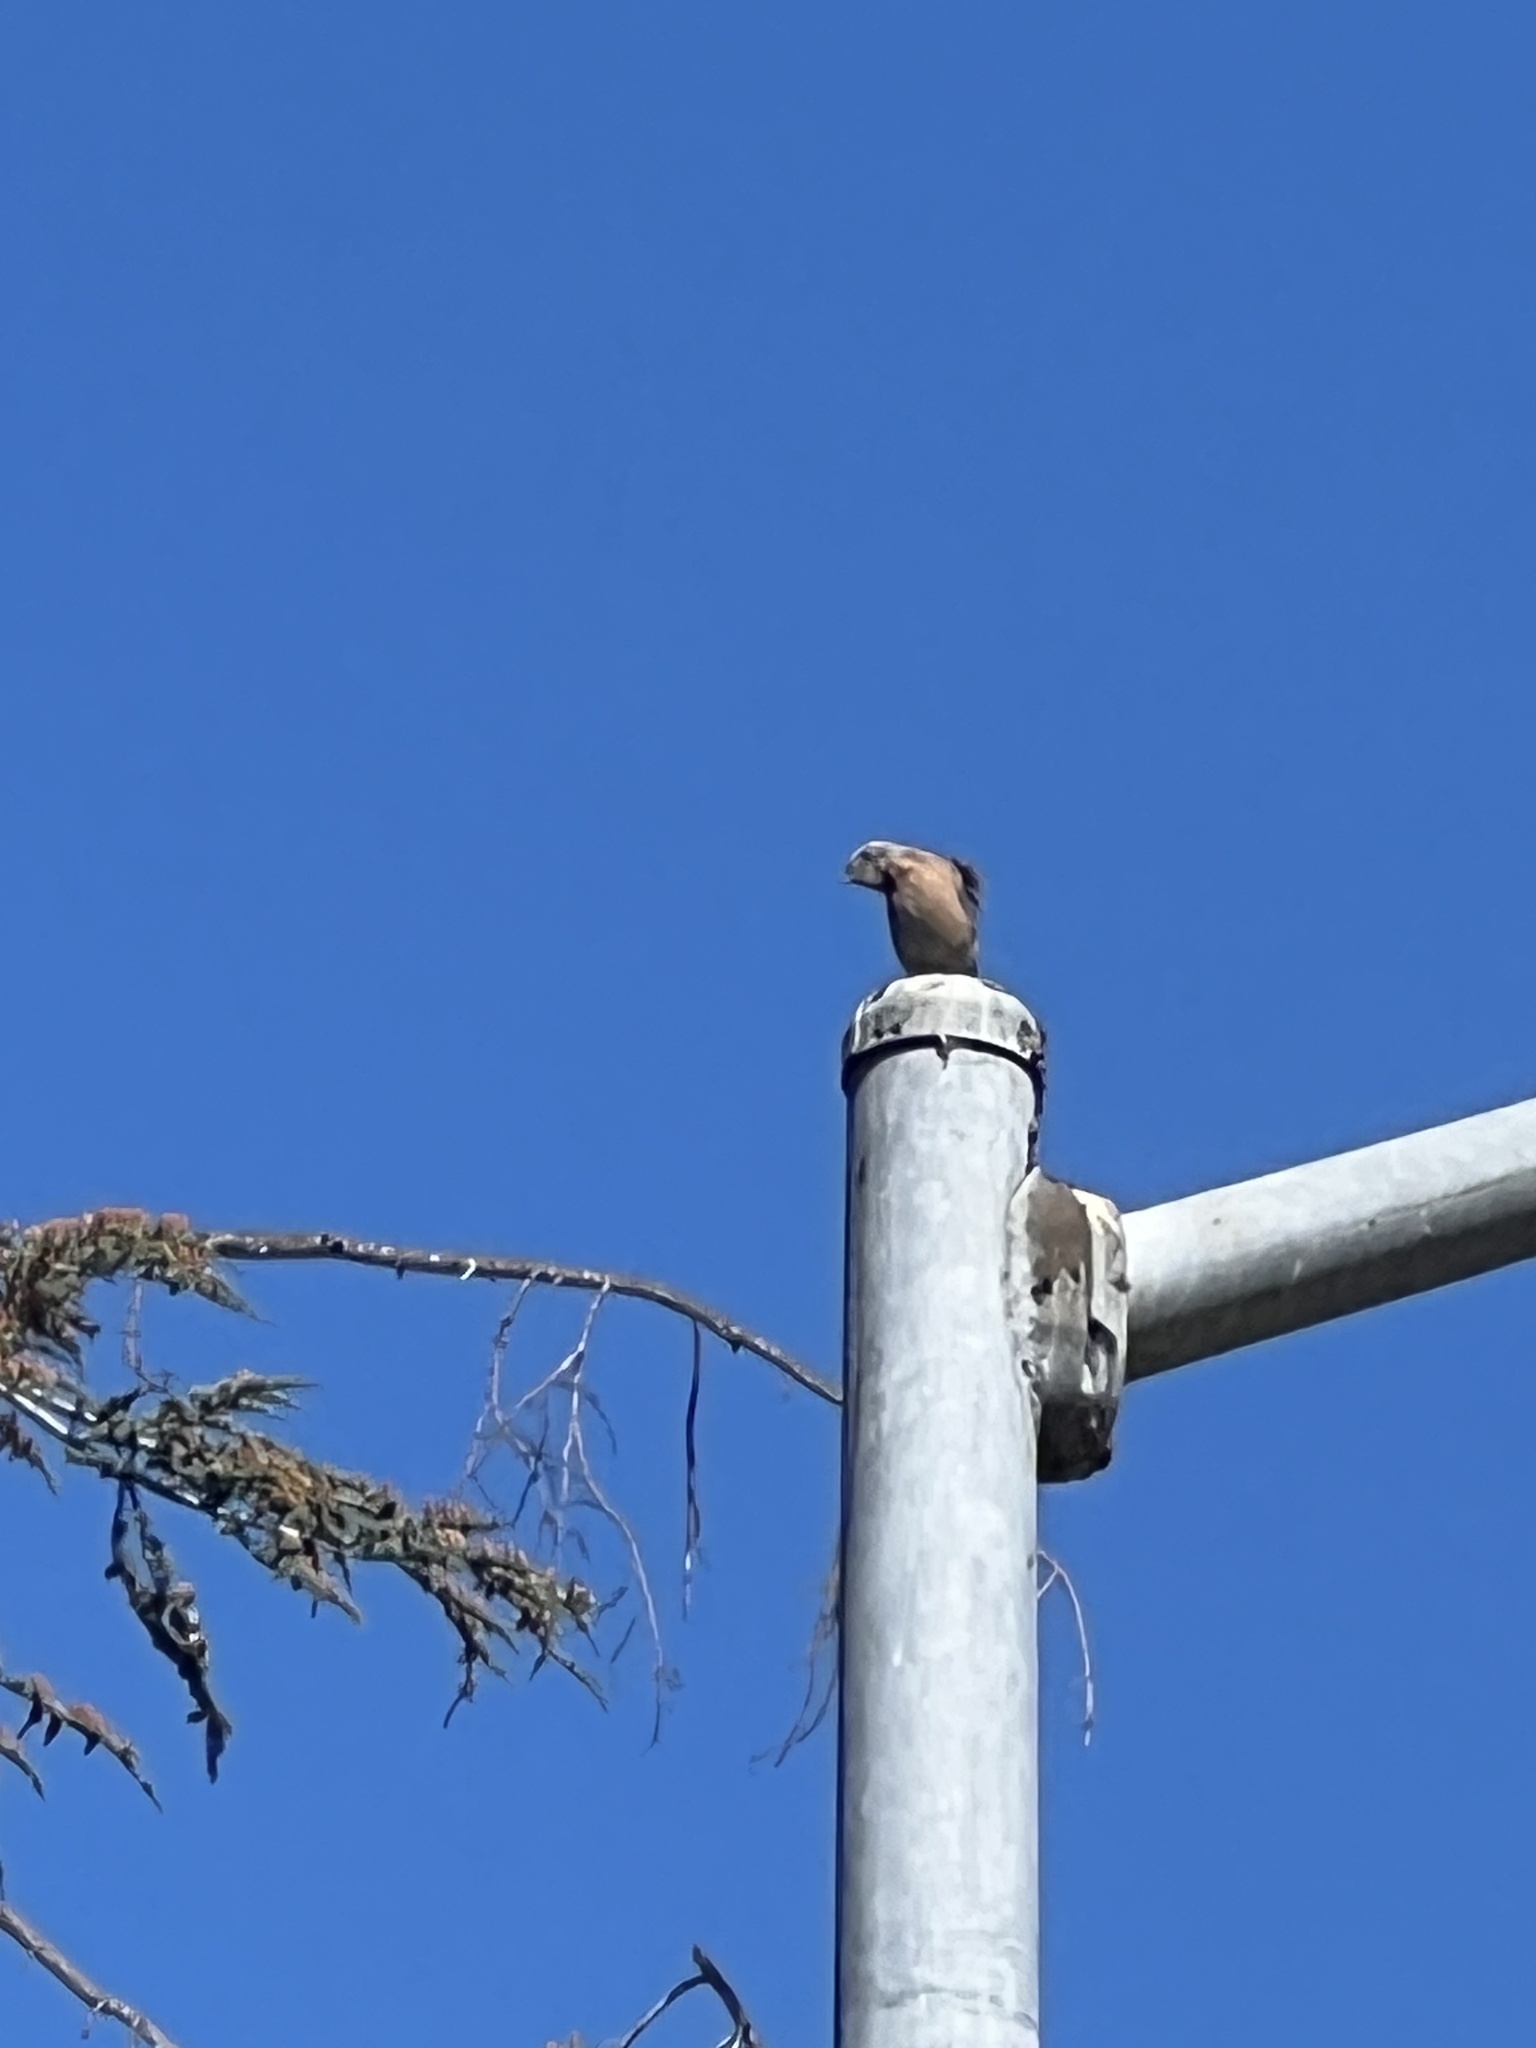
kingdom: Animalia
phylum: Chordata
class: Aves
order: Passeriformes
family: Turdidae
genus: Sialia
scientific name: Sialia mexicana
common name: Western bluebird
